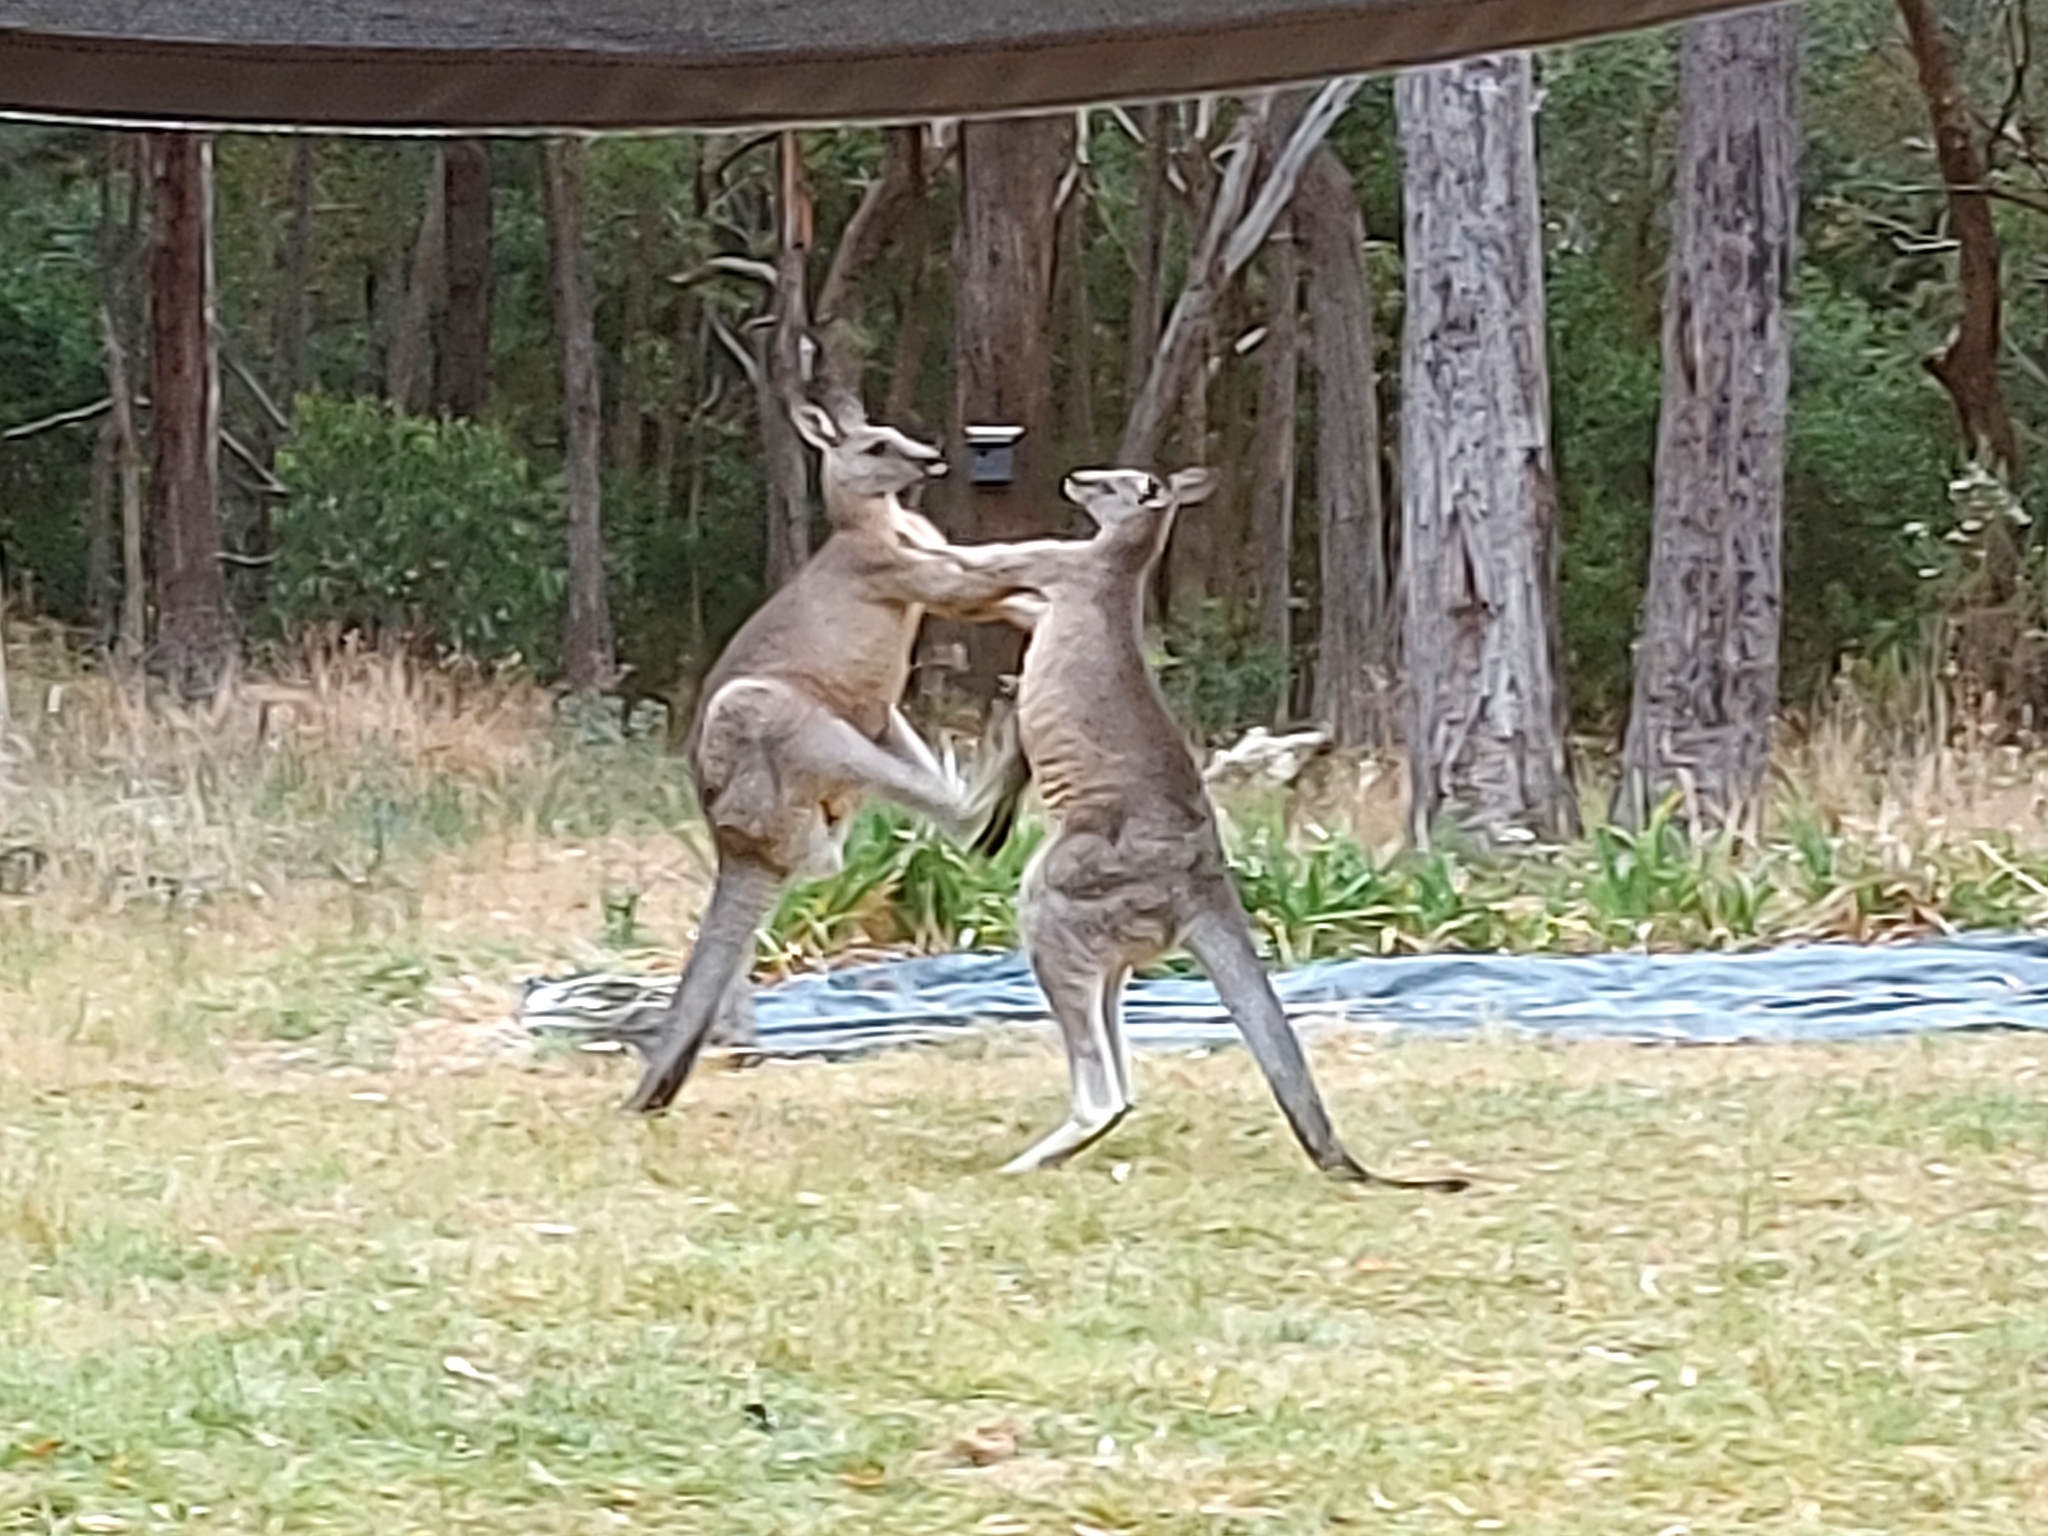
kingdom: Animalia
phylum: Chordata
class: Mammalia
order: Diprotodontia
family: Macropodidae
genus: Macropus
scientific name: Macropus giganteus
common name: Eastern grey kangaroo
